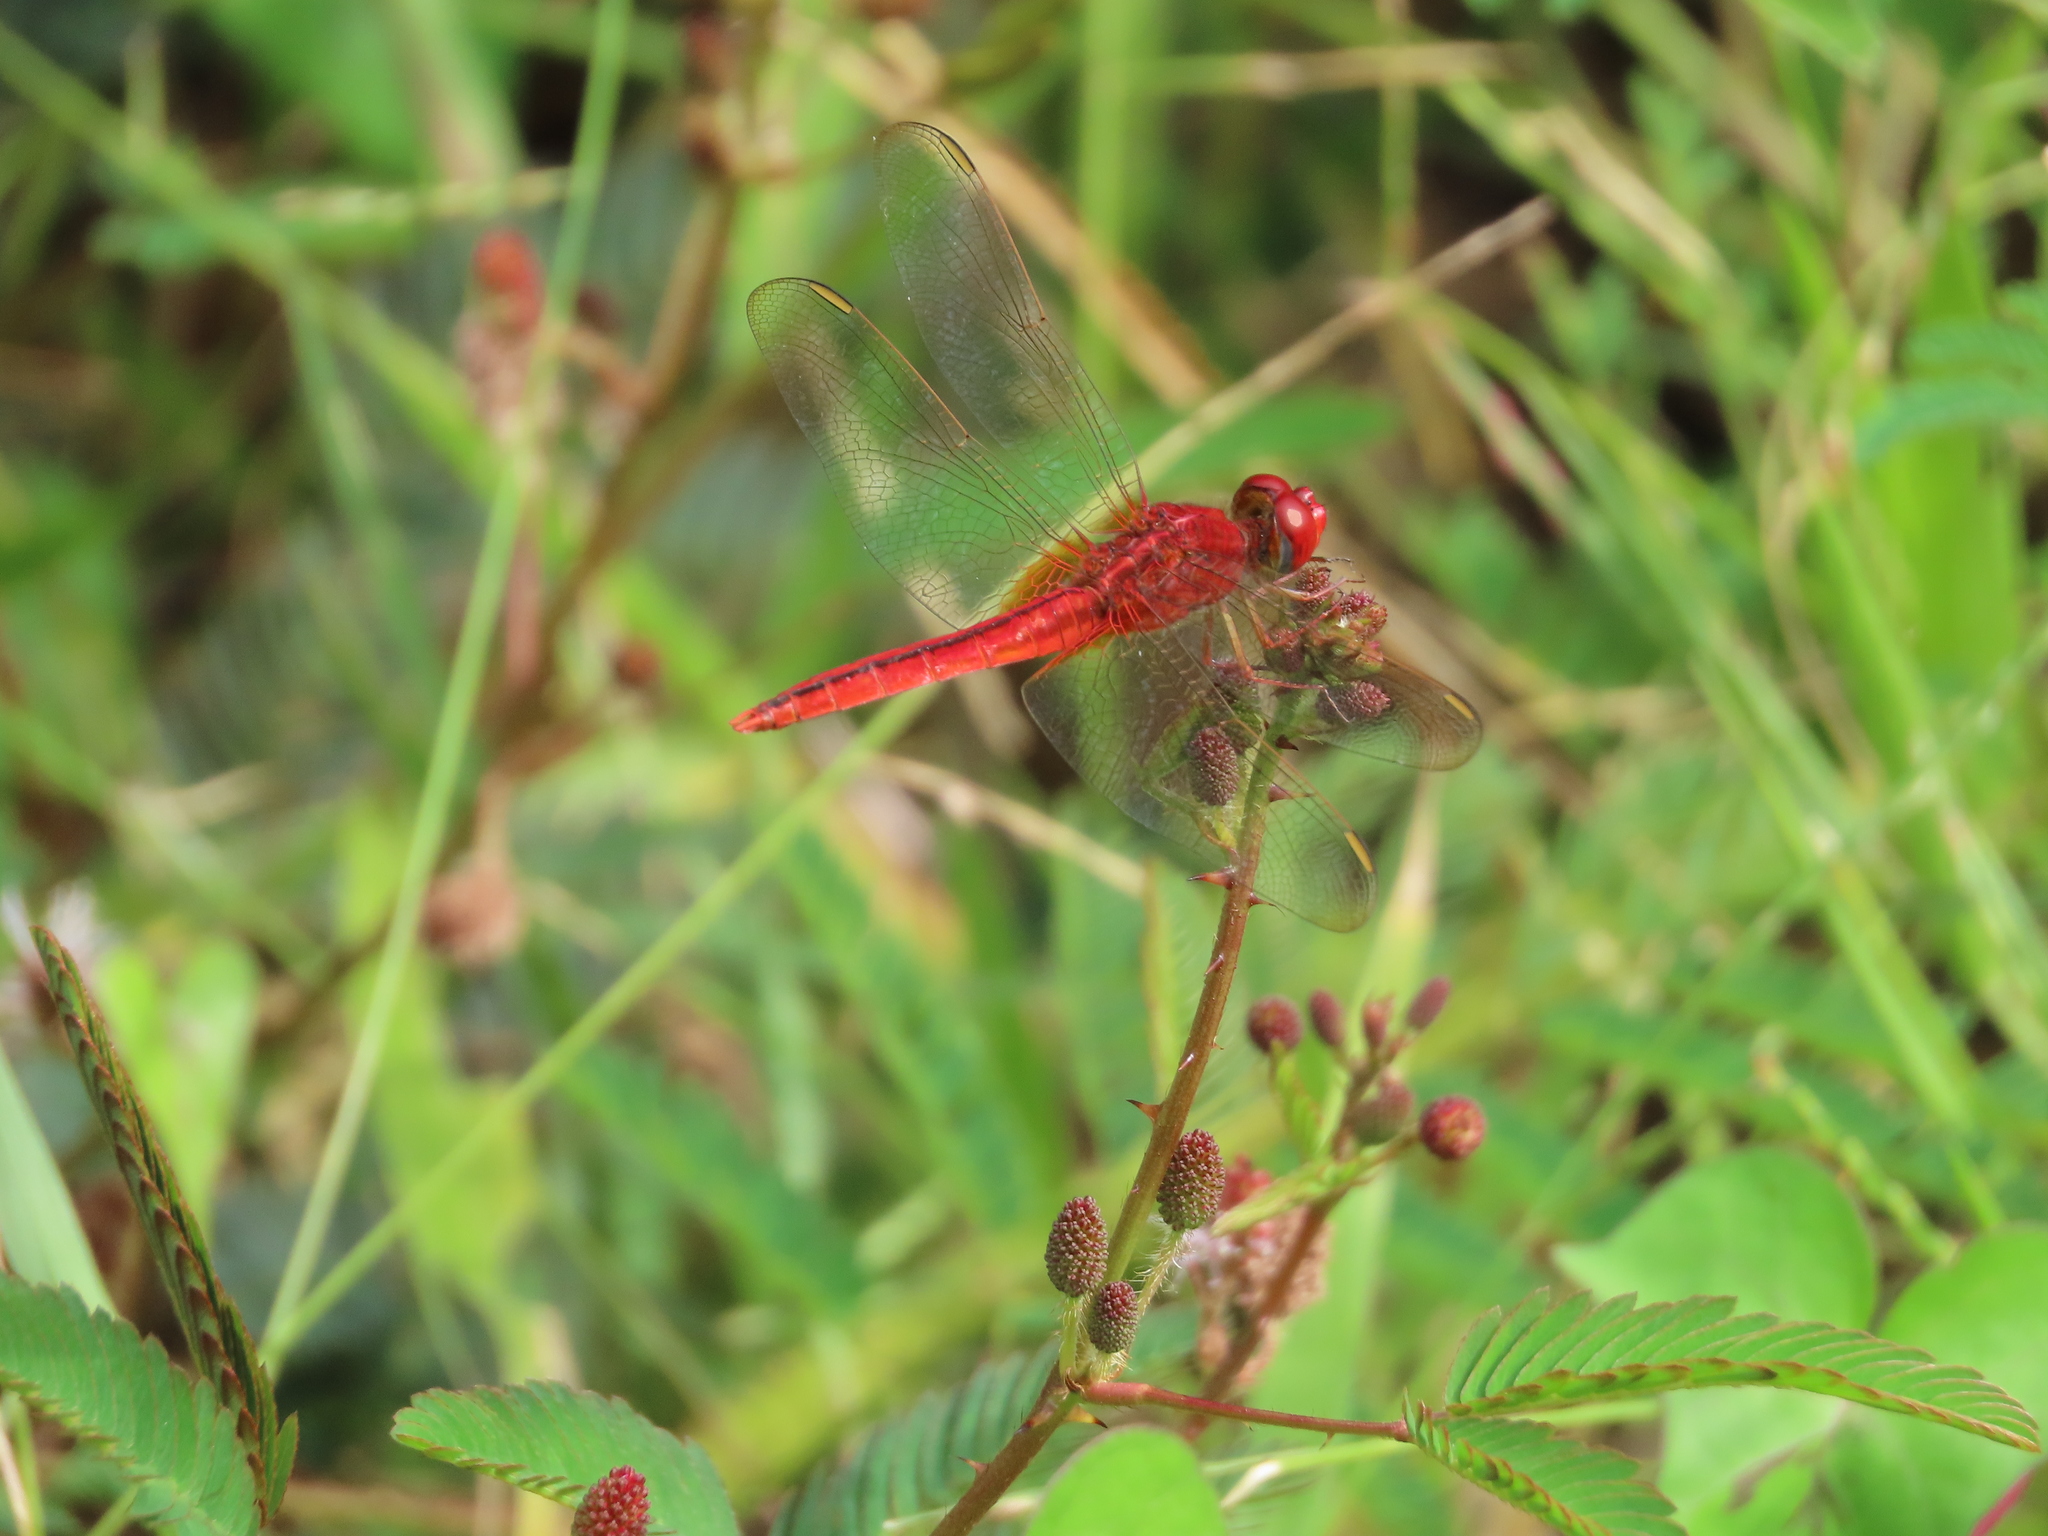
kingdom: Animalia
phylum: Arthropoda
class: Insecta
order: Odonata
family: Libellulidae
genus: Crocothemis
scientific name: Crocothemis servilia
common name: Scarlet skimmer
